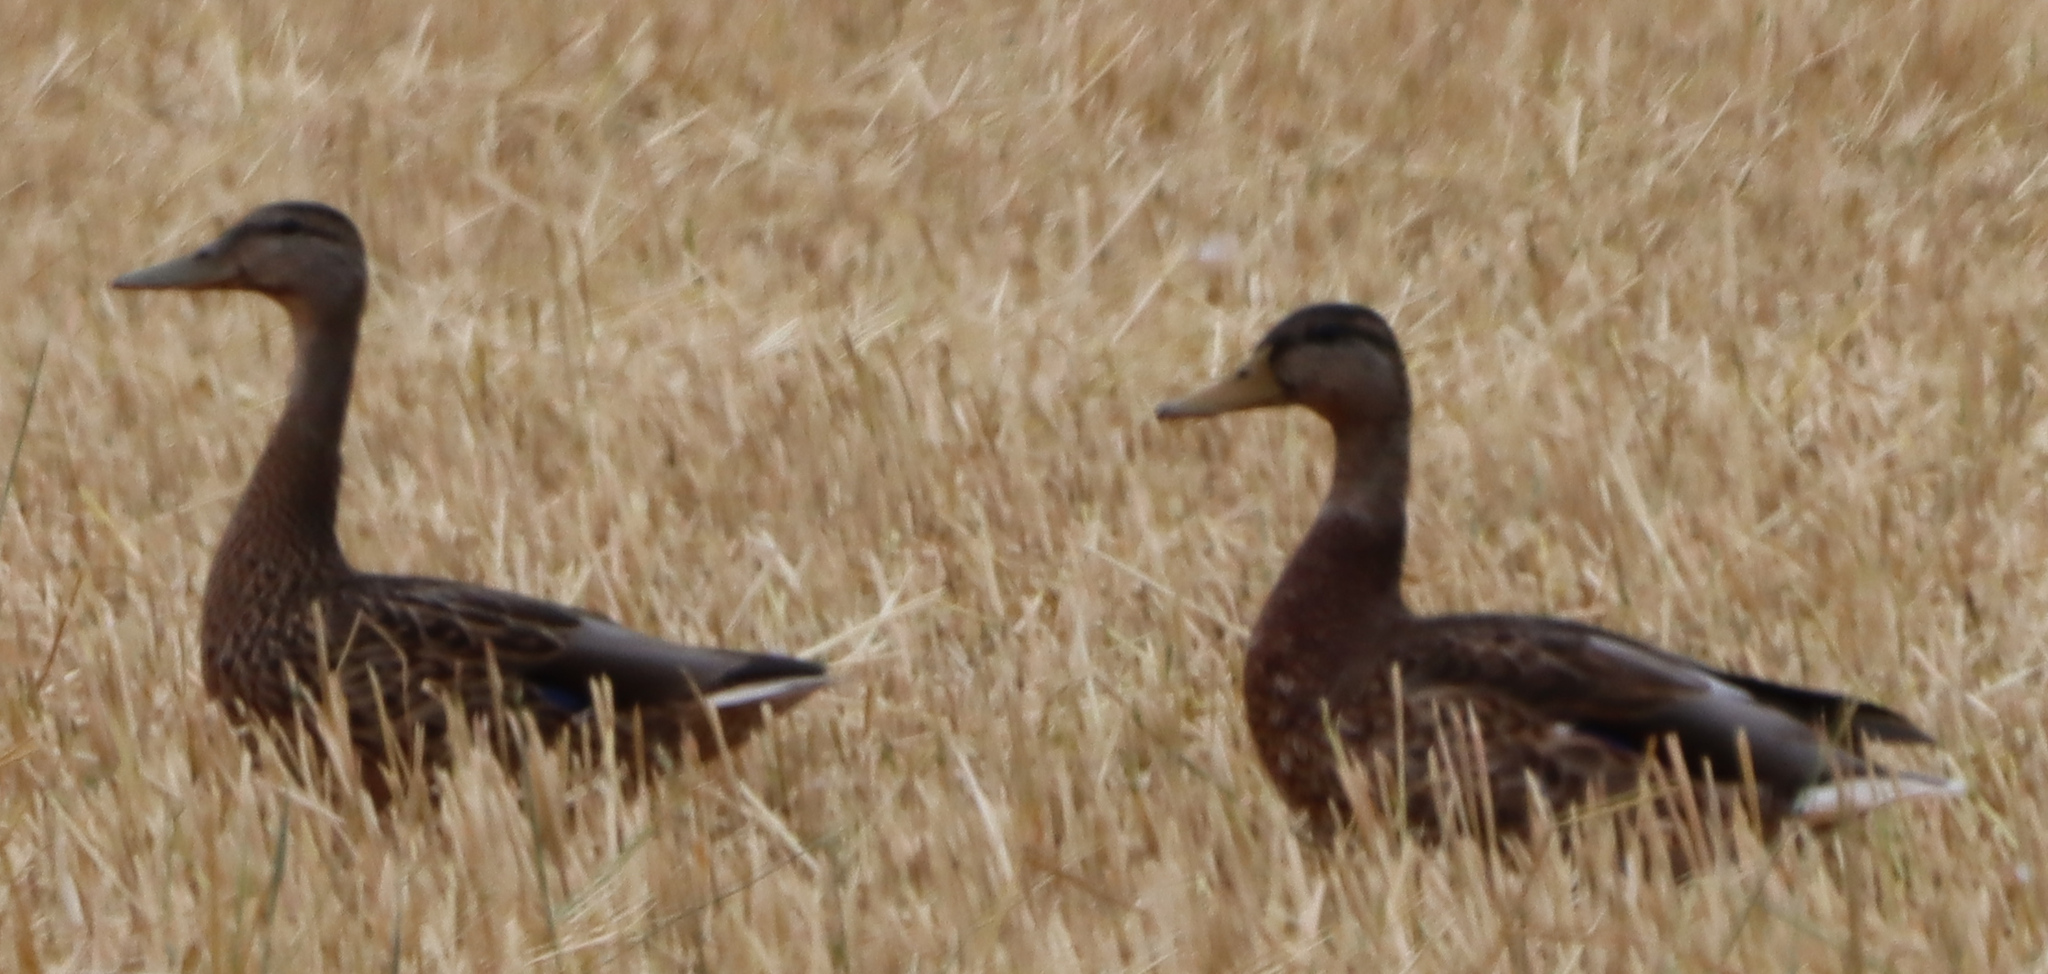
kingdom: Animalia
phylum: Chordata
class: Aves
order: Anseriformes
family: Anatidae
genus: Anas
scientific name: Anas platyrhynchos
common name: Mallard
